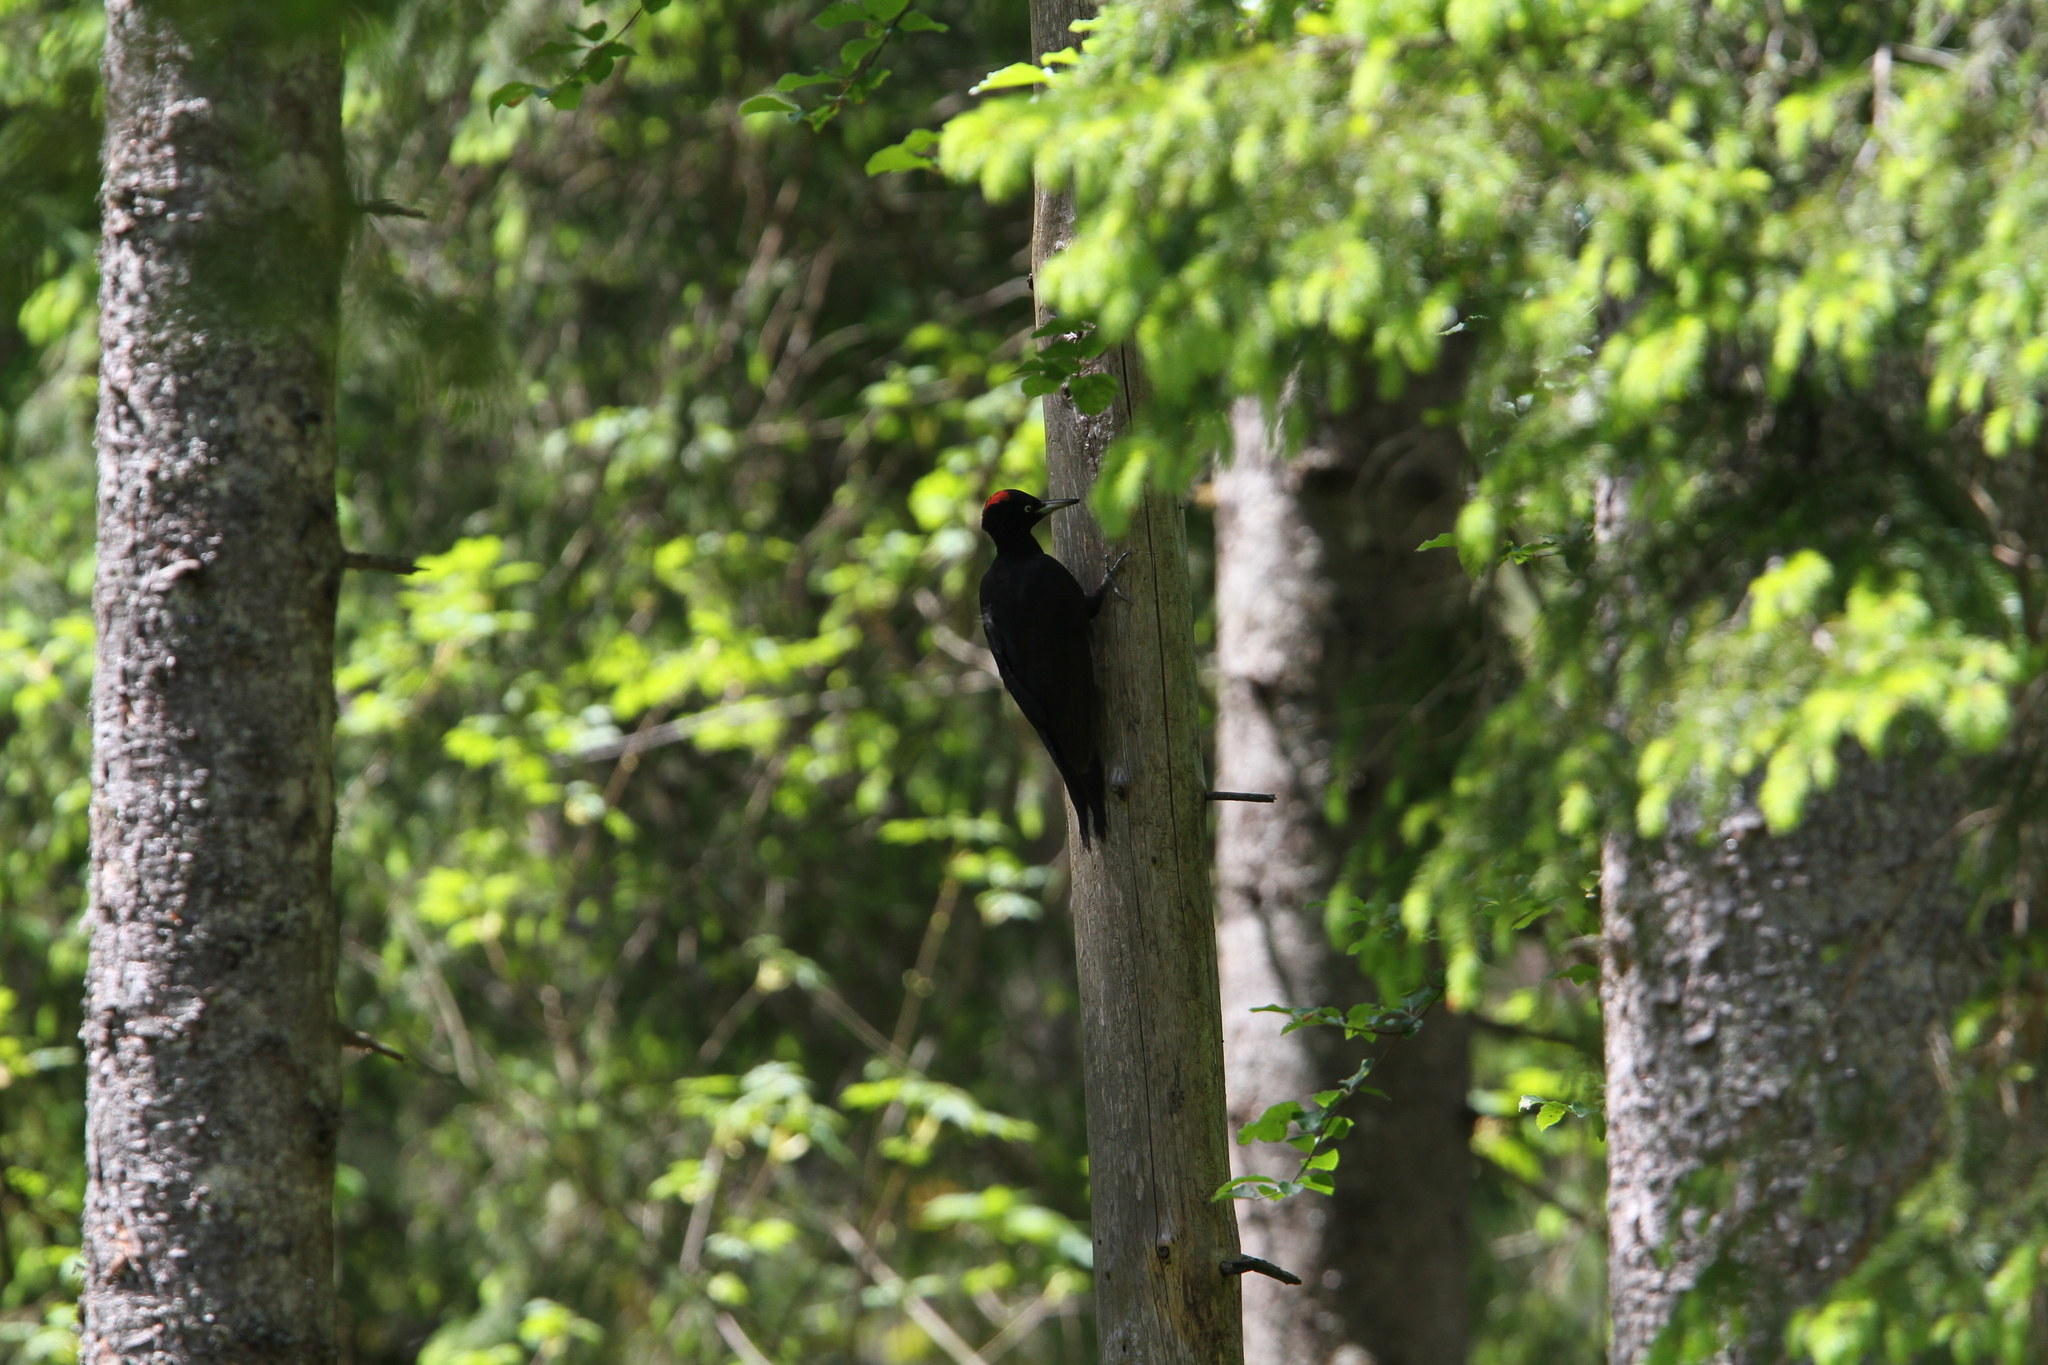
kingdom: Animalia
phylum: Chordata
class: Aves
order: Piciformes
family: Picidae
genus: Dryocopus
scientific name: Dryocopus martius
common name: Black woodpecker
